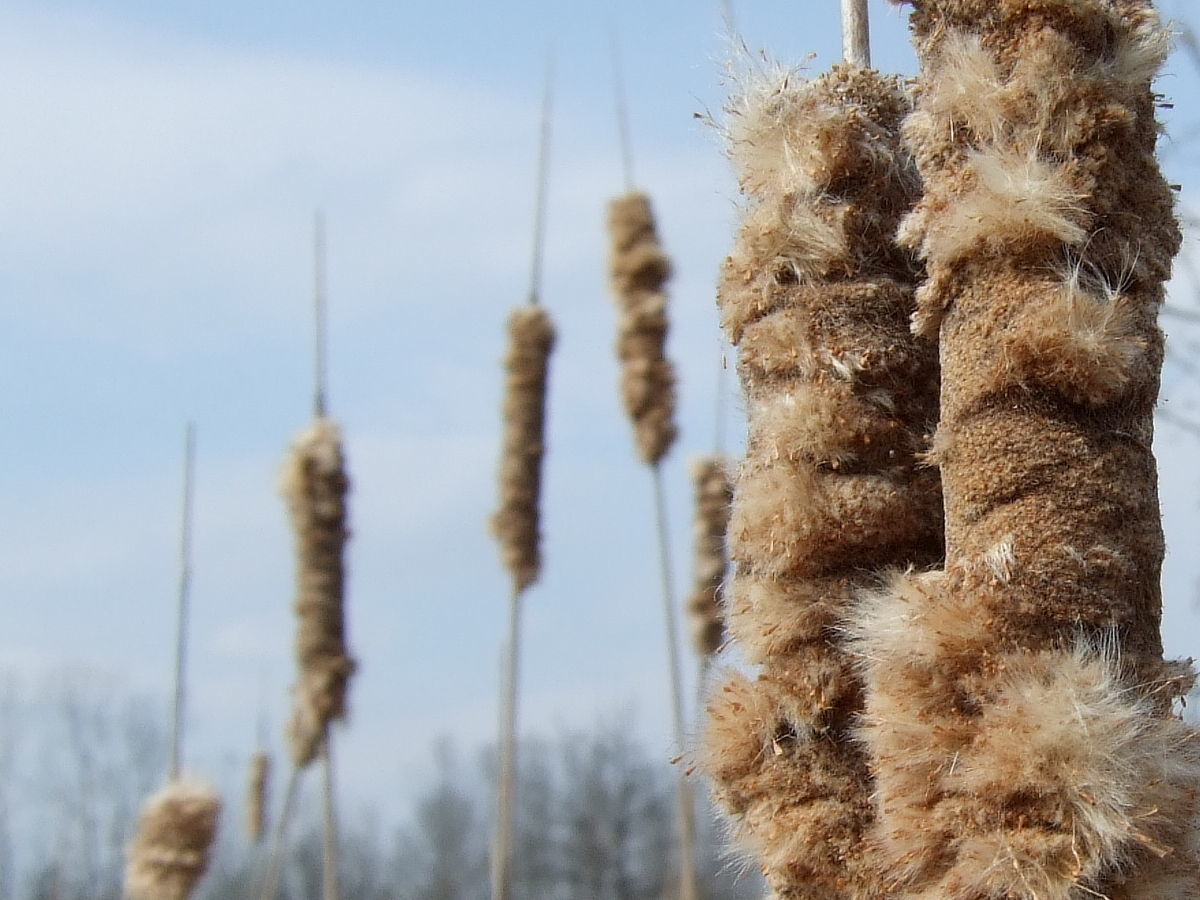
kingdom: Plantae
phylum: Tracheophyta
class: Liliopsida
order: Poales
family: Typhaceae
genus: Typha
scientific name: Typha glauca
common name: Blue cattail
